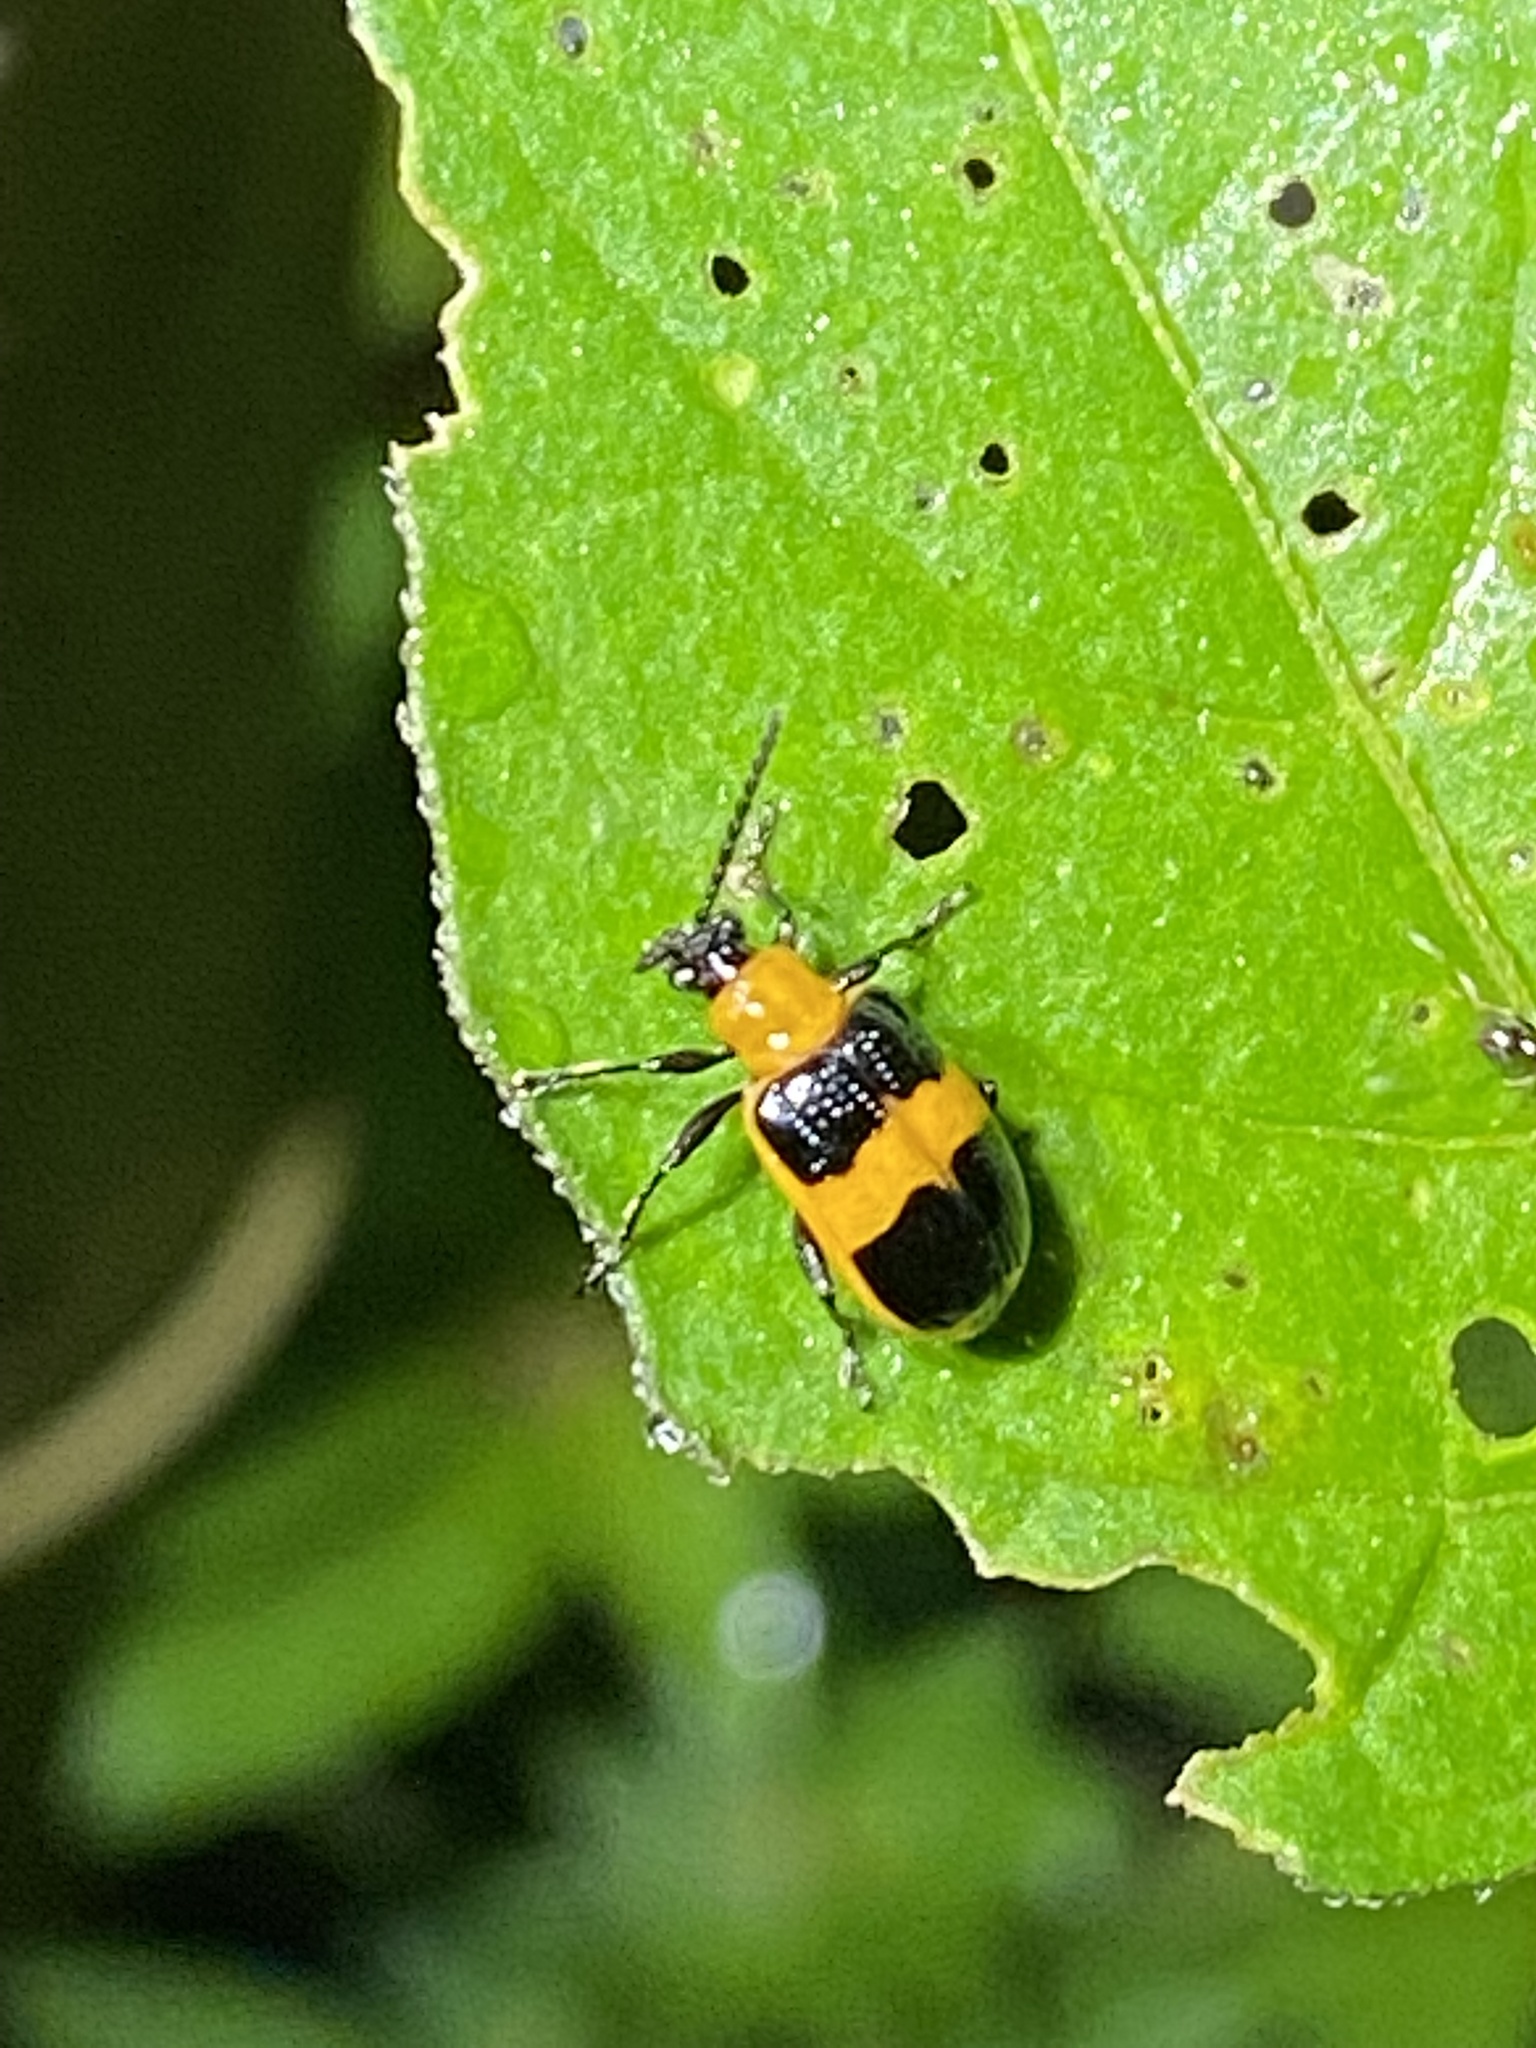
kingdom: Animalia
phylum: Arthropoda
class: Insecta
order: Coleoptera
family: Chrysomelidae
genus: Lema
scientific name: Lema solani
